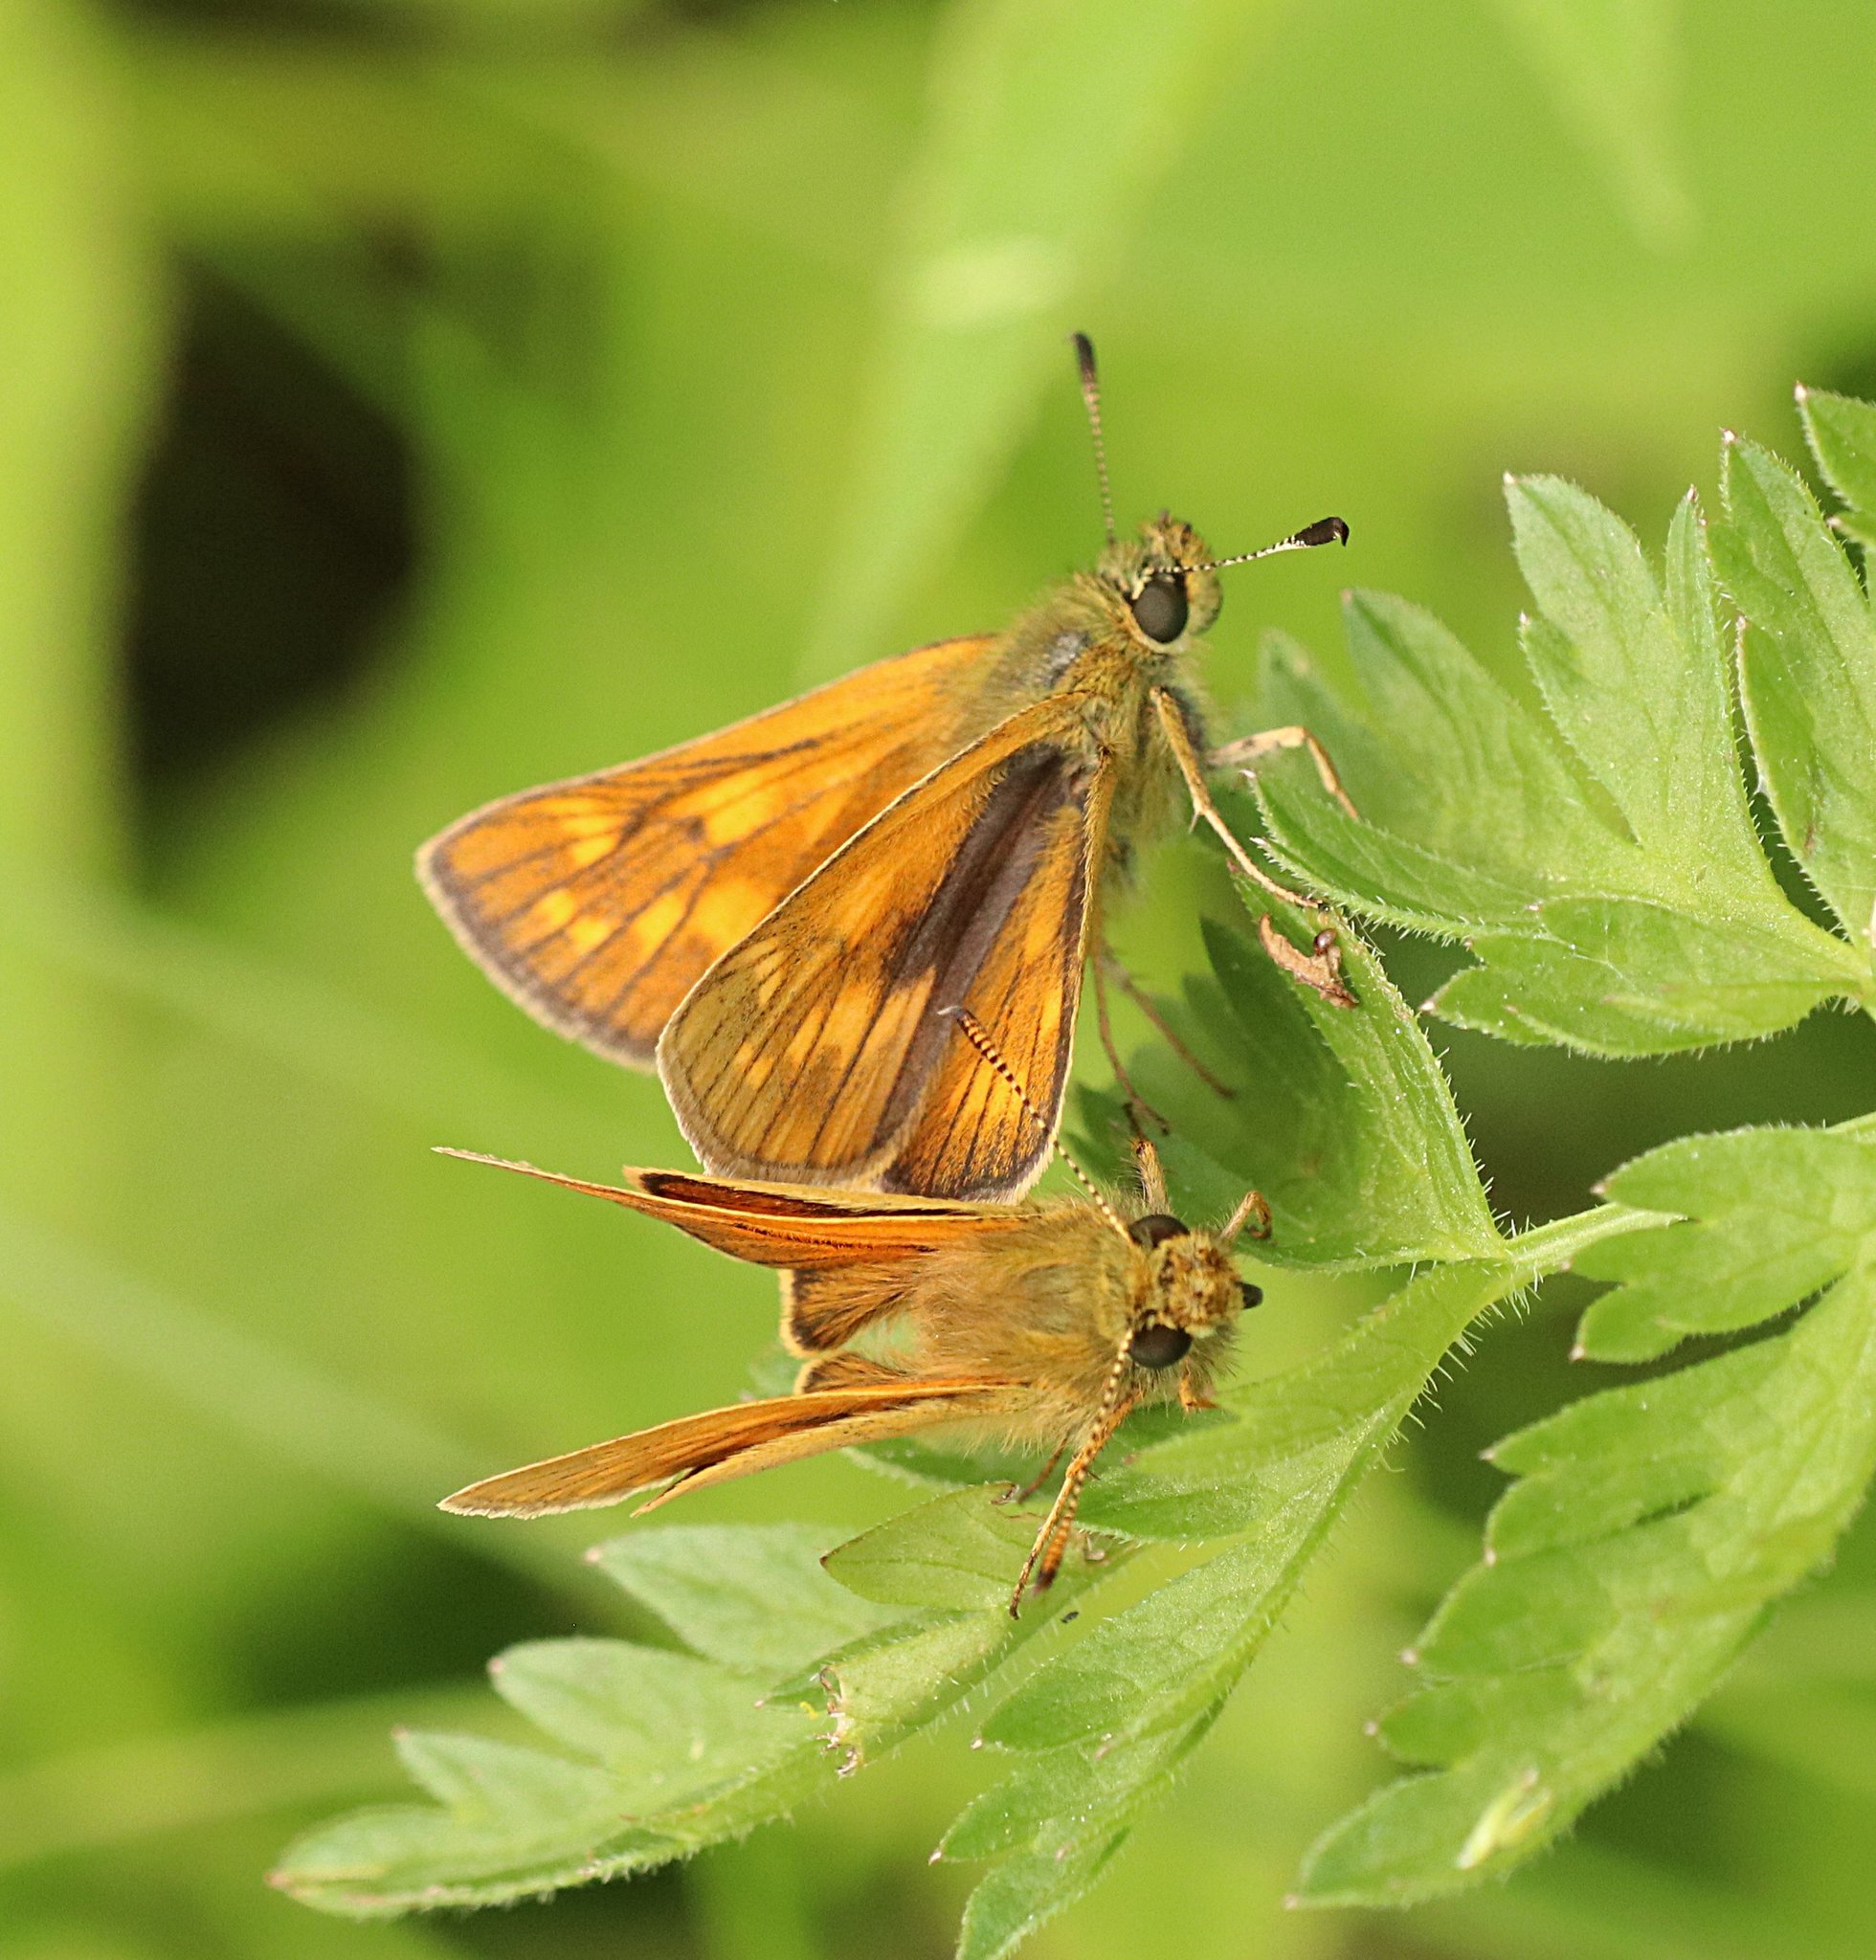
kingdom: Animalia
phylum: Arthropoda
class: Insecta
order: Lepidoptera
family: Hesperiidae
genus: Ochlodes
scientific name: Ochlodes venata
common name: Large skipper
